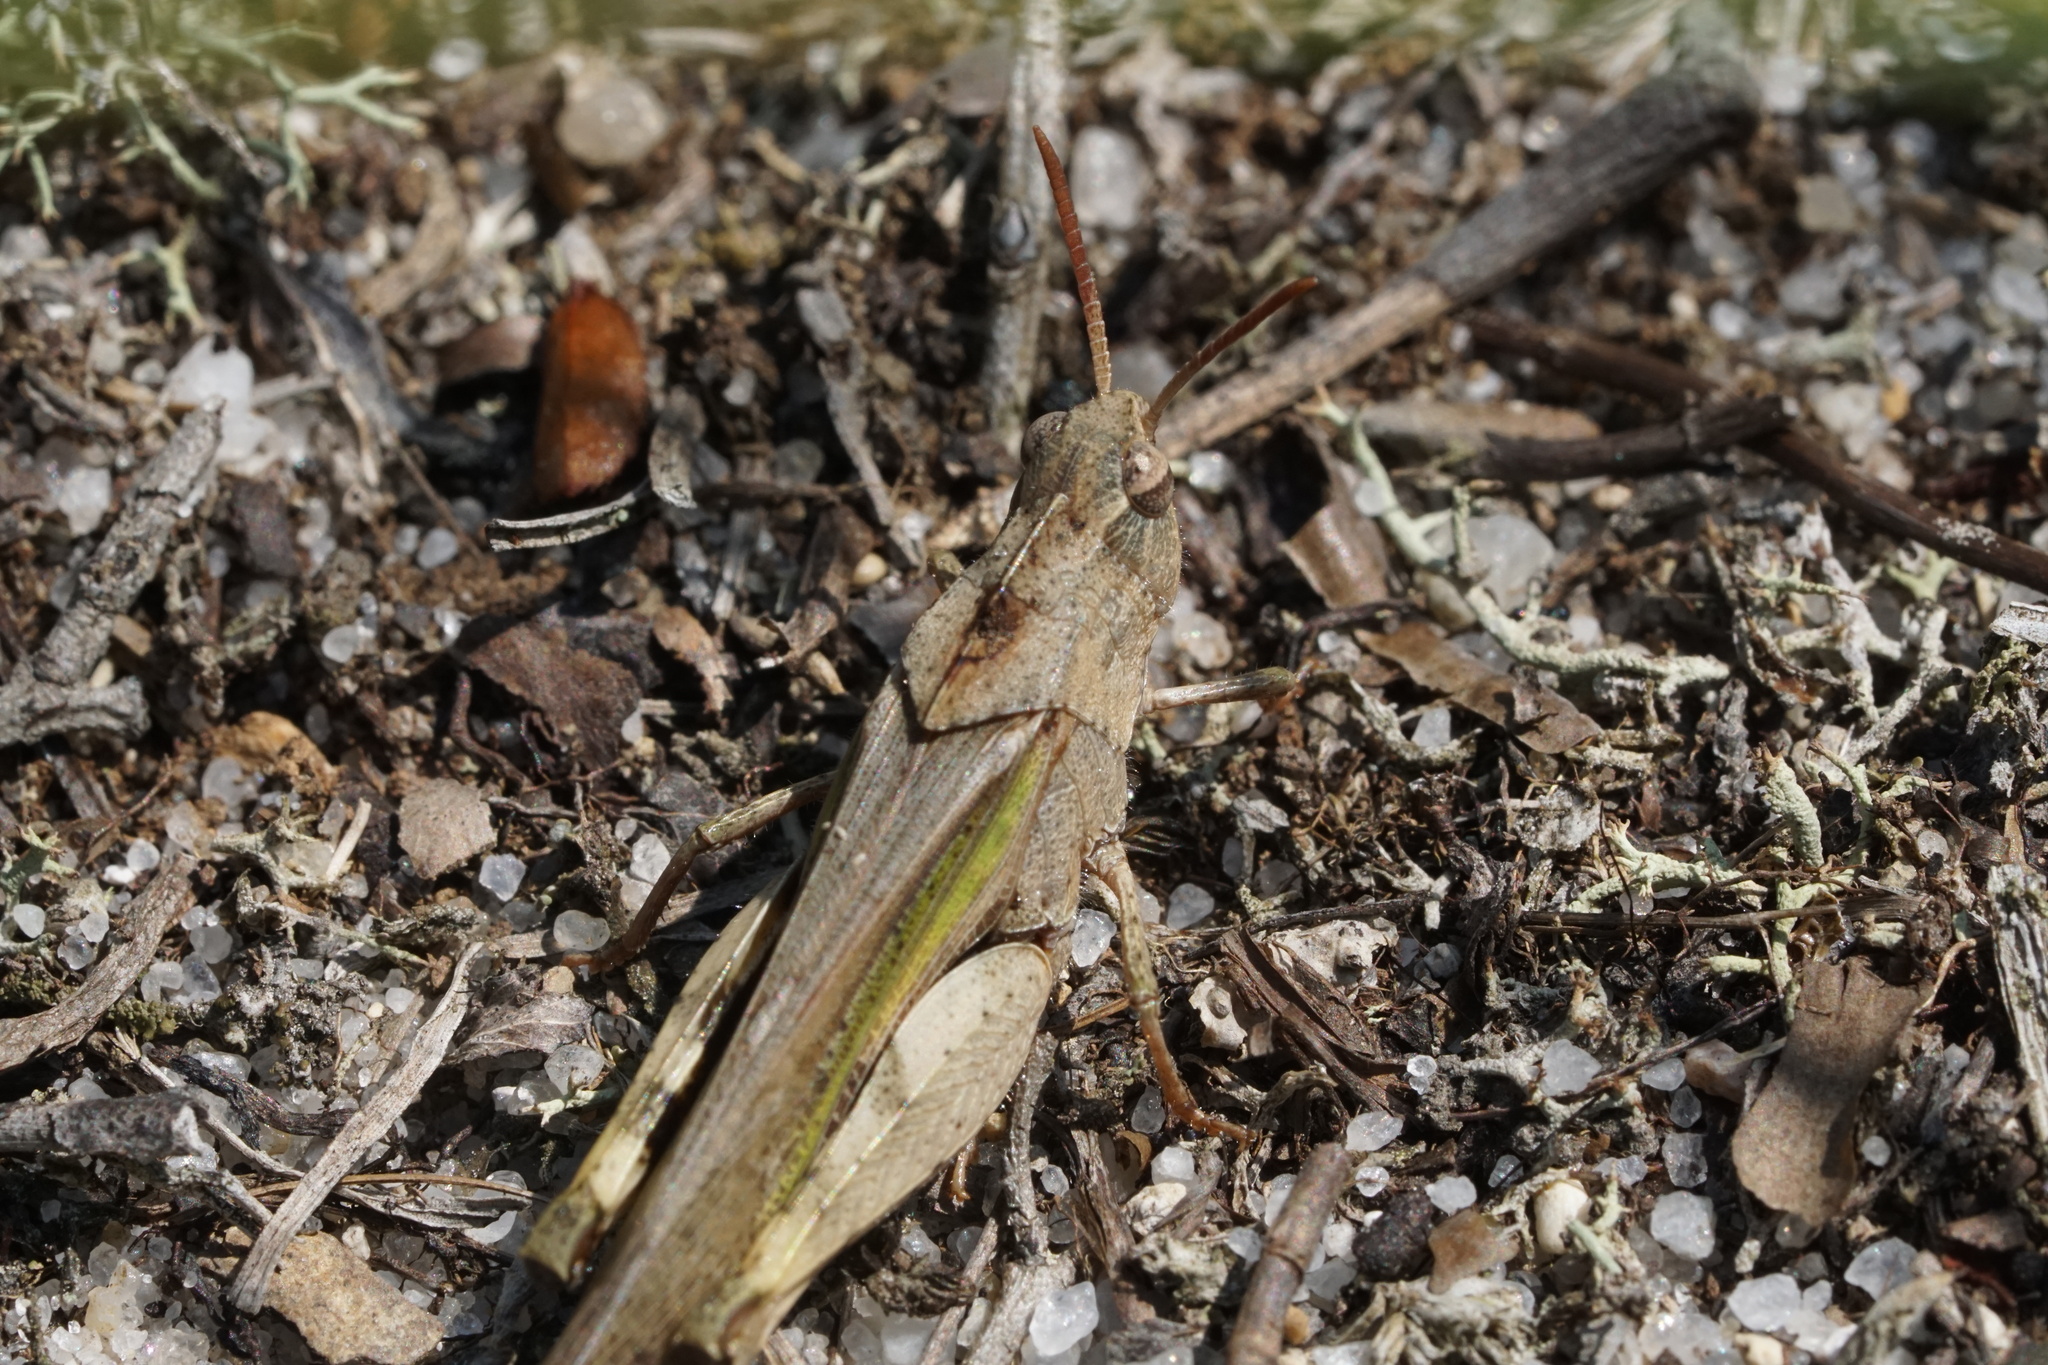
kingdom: Animalia
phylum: Arthropoda
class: Insecta
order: Orthoptera
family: Acrididae
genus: Chortophaga
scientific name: Chortophaga viridifasciata
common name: Green-striped grasshopper
